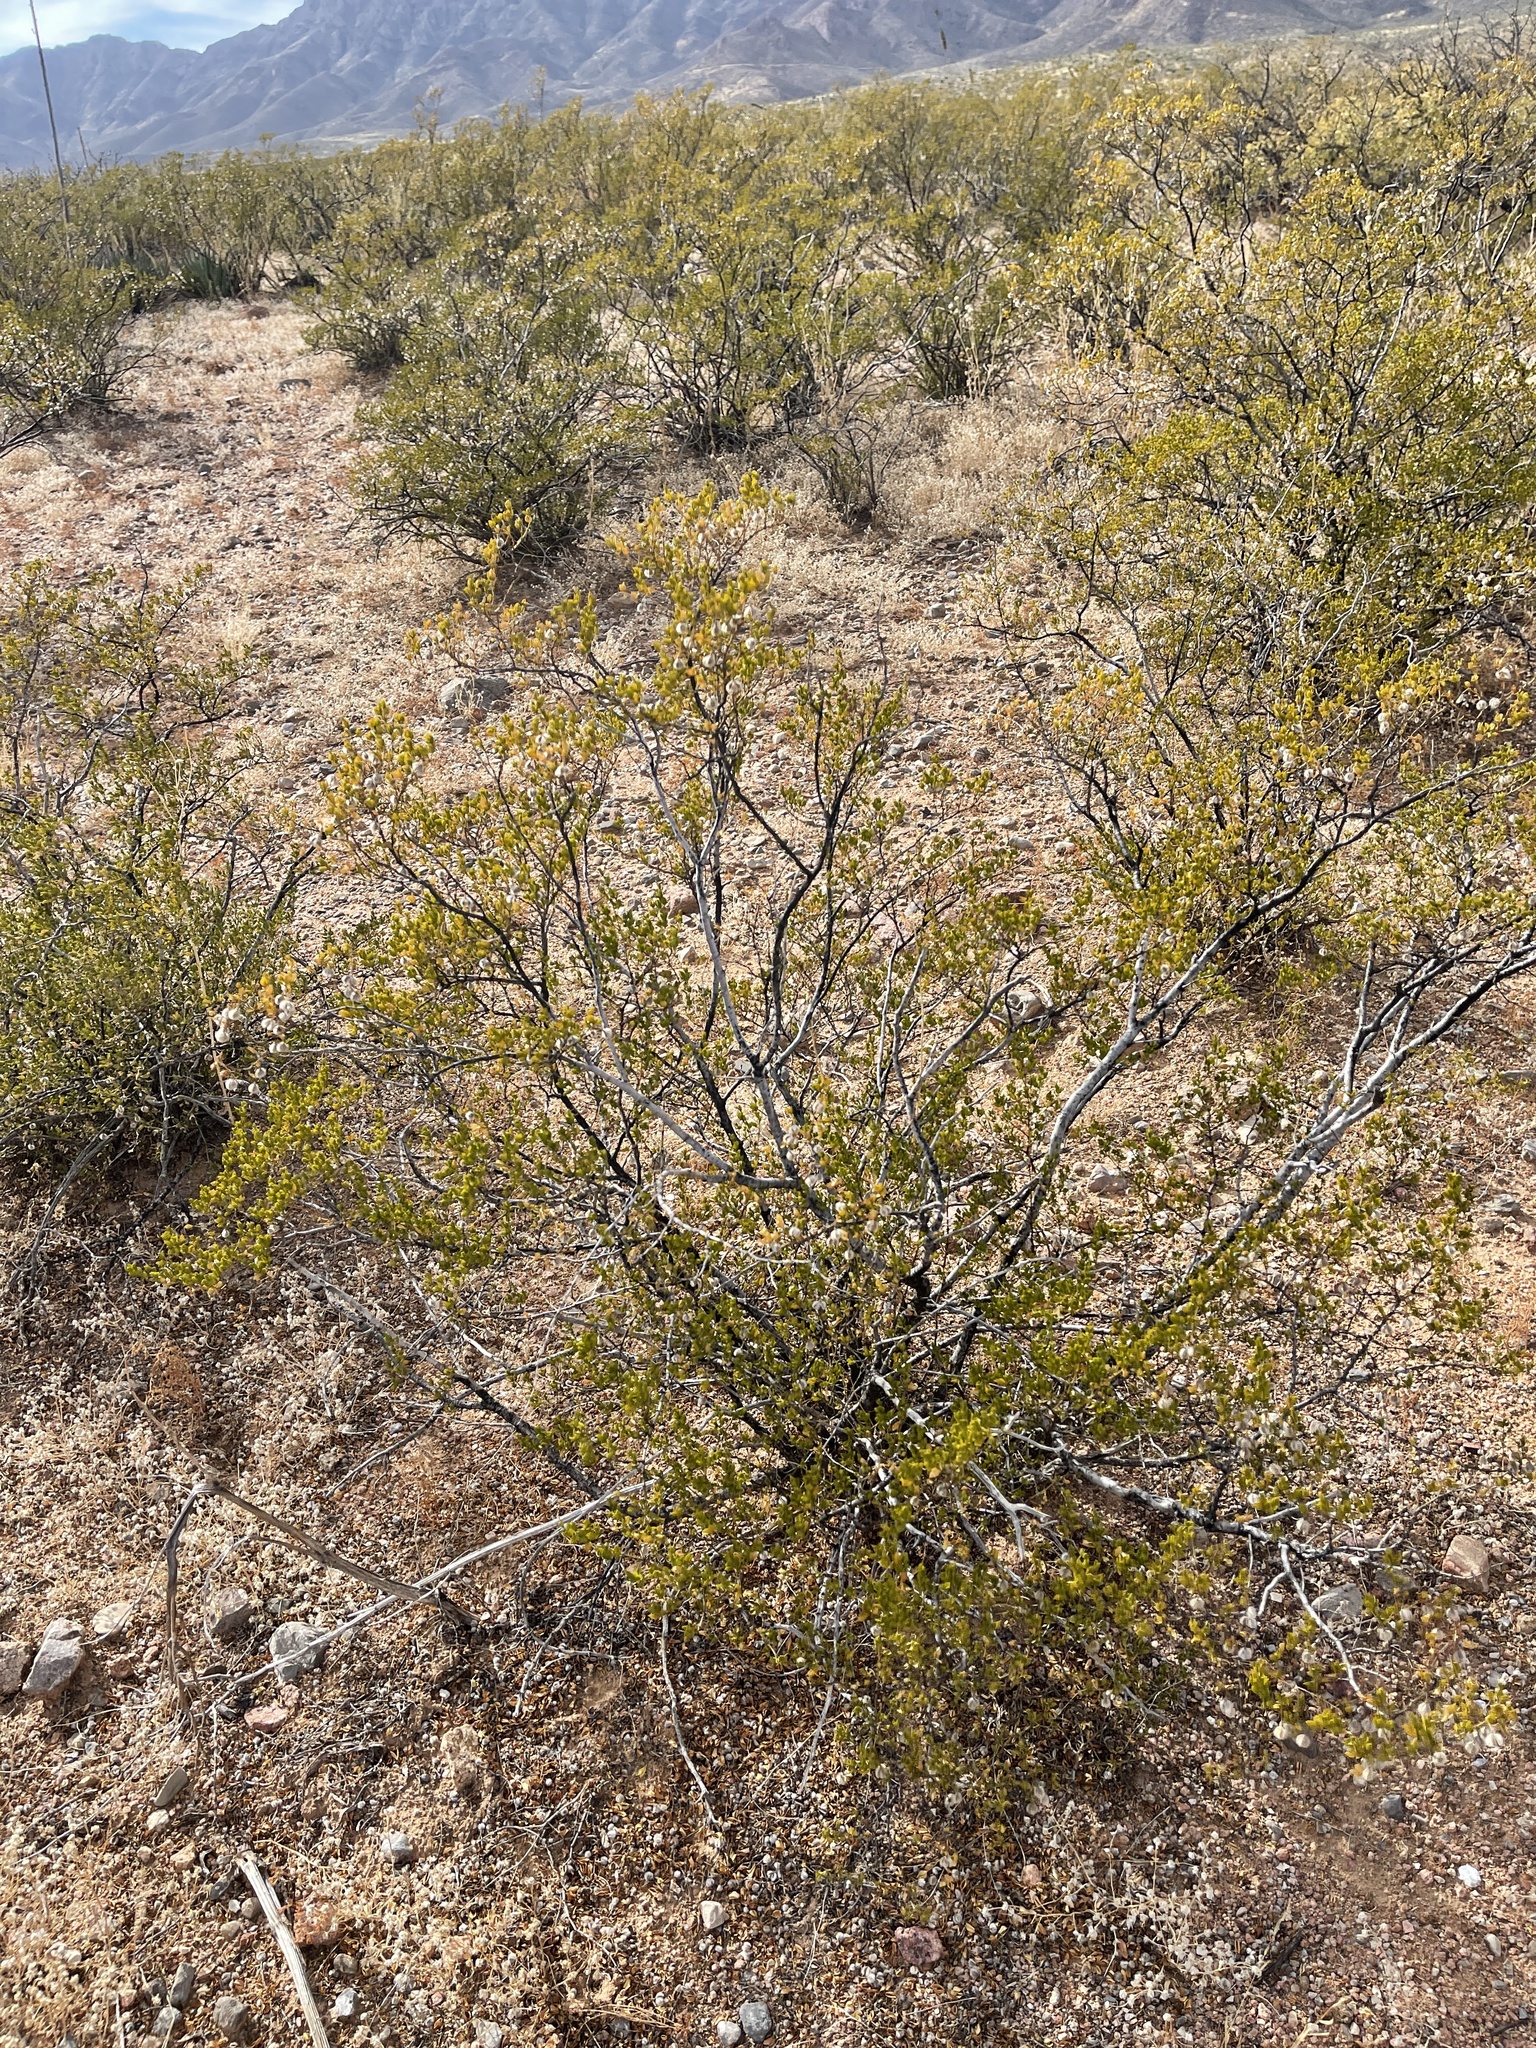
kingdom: Plantae
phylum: Tracheophyta
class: Magnoliopsida
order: Zygophyllales
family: Zygophyllaceae
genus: Larrea
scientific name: Larrea tridentata
